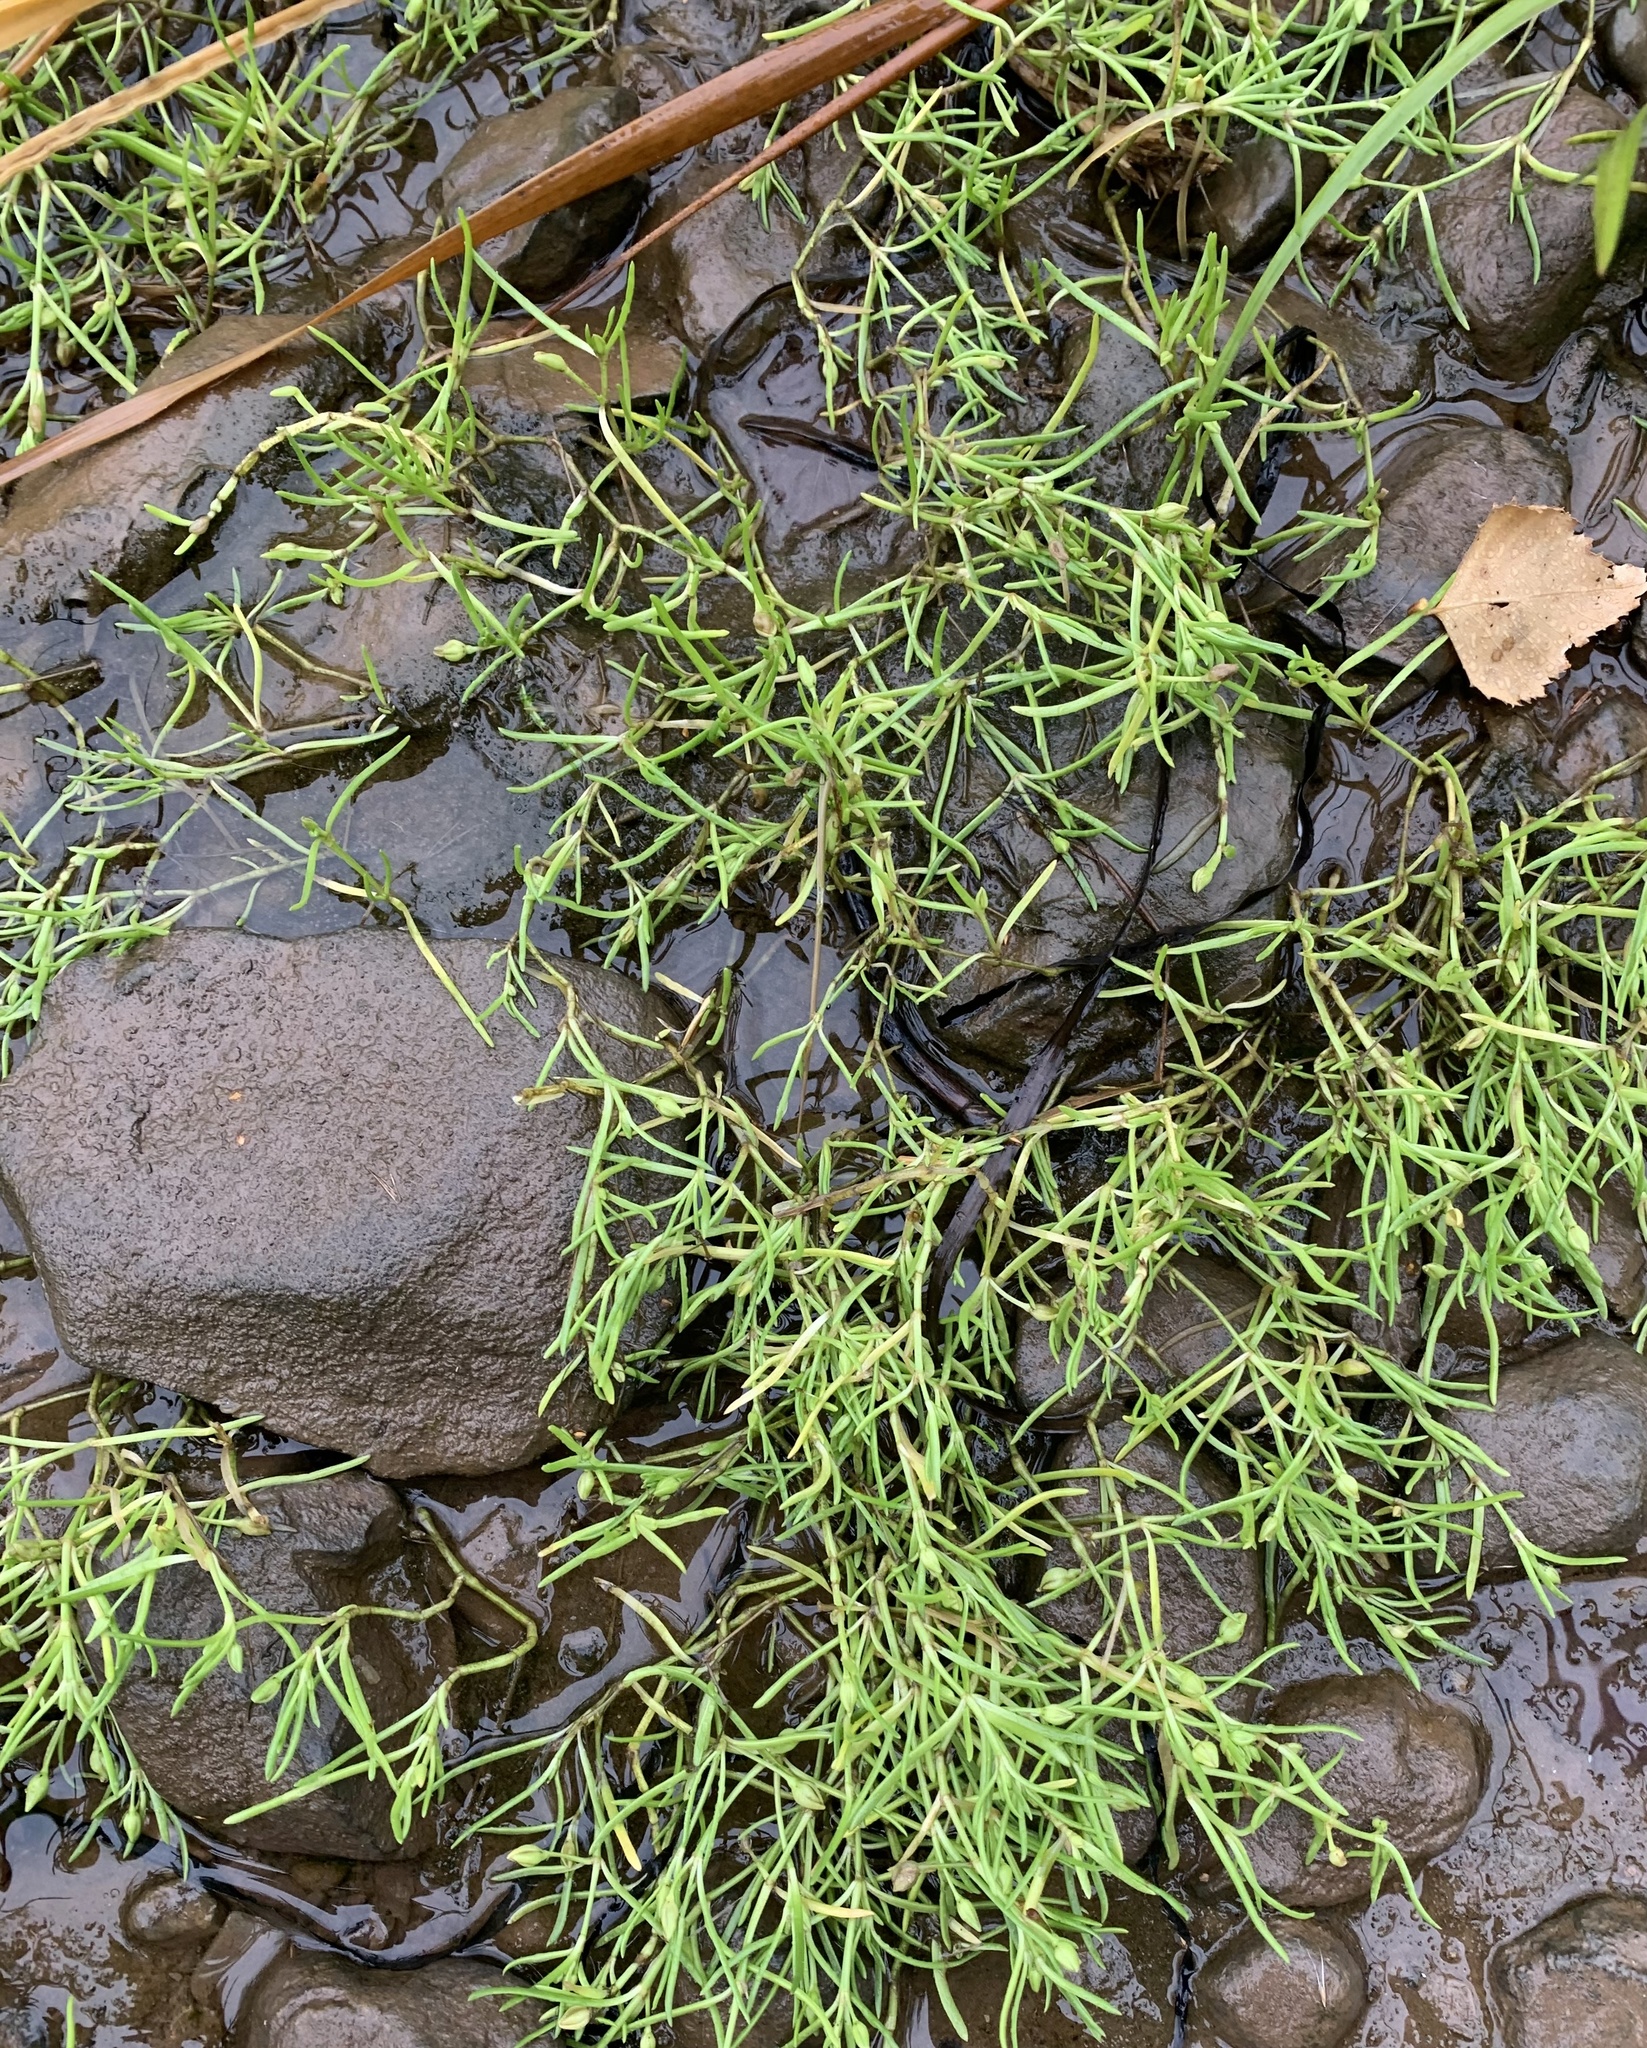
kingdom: Plantae
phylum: Tracheophyta
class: Magnoliopsida
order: Caryophyllales
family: Caryophyllaceae
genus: Spergularia
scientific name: Spergularia marina
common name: Lesser sea-spurrey
